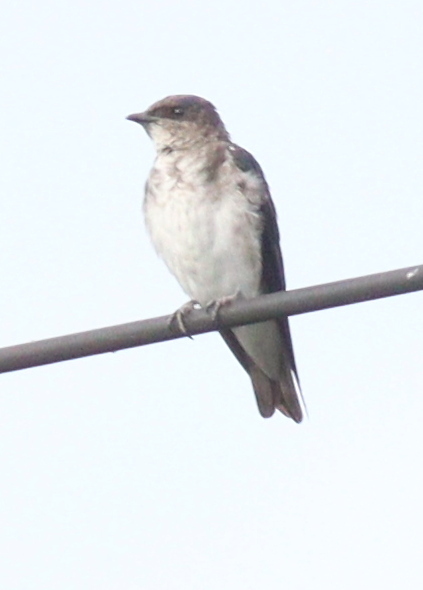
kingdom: Animalia
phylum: Chordata
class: Aves
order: Passeriformes
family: Hirundinidae
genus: Progne
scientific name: Progne chalybea
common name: Grey-breasted martin
